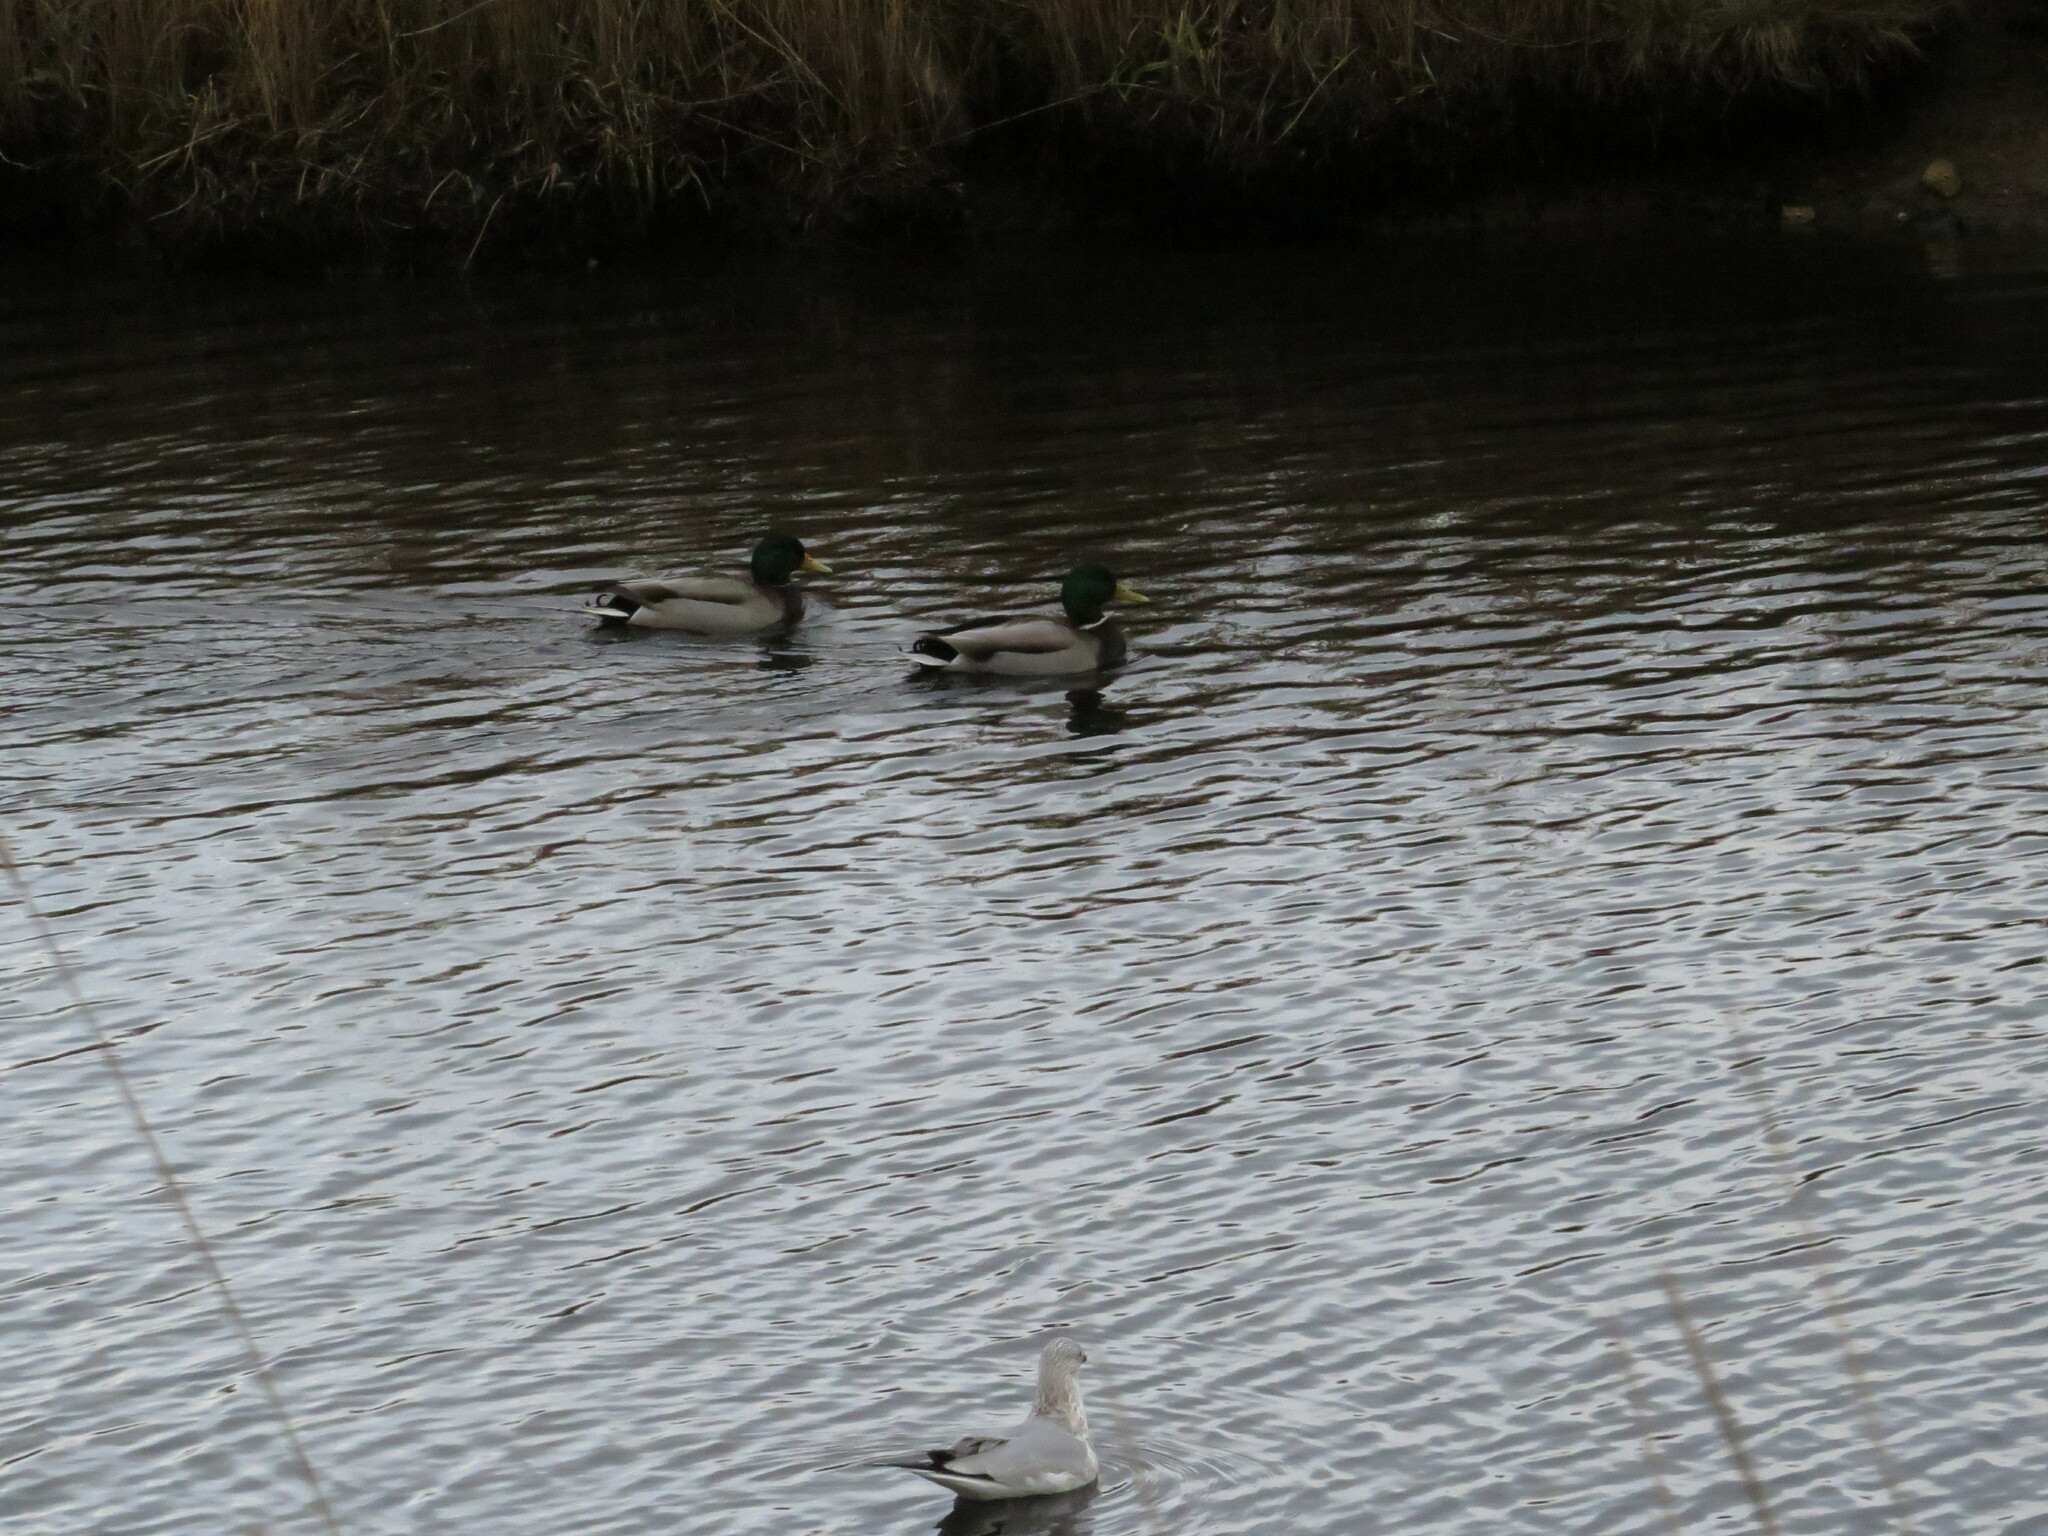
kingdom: Animalia
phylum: Chordata
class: Aves
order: Anseriformes
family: Anatidae
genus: Anas
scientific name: Anas platyrhynchos
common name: Mallard
